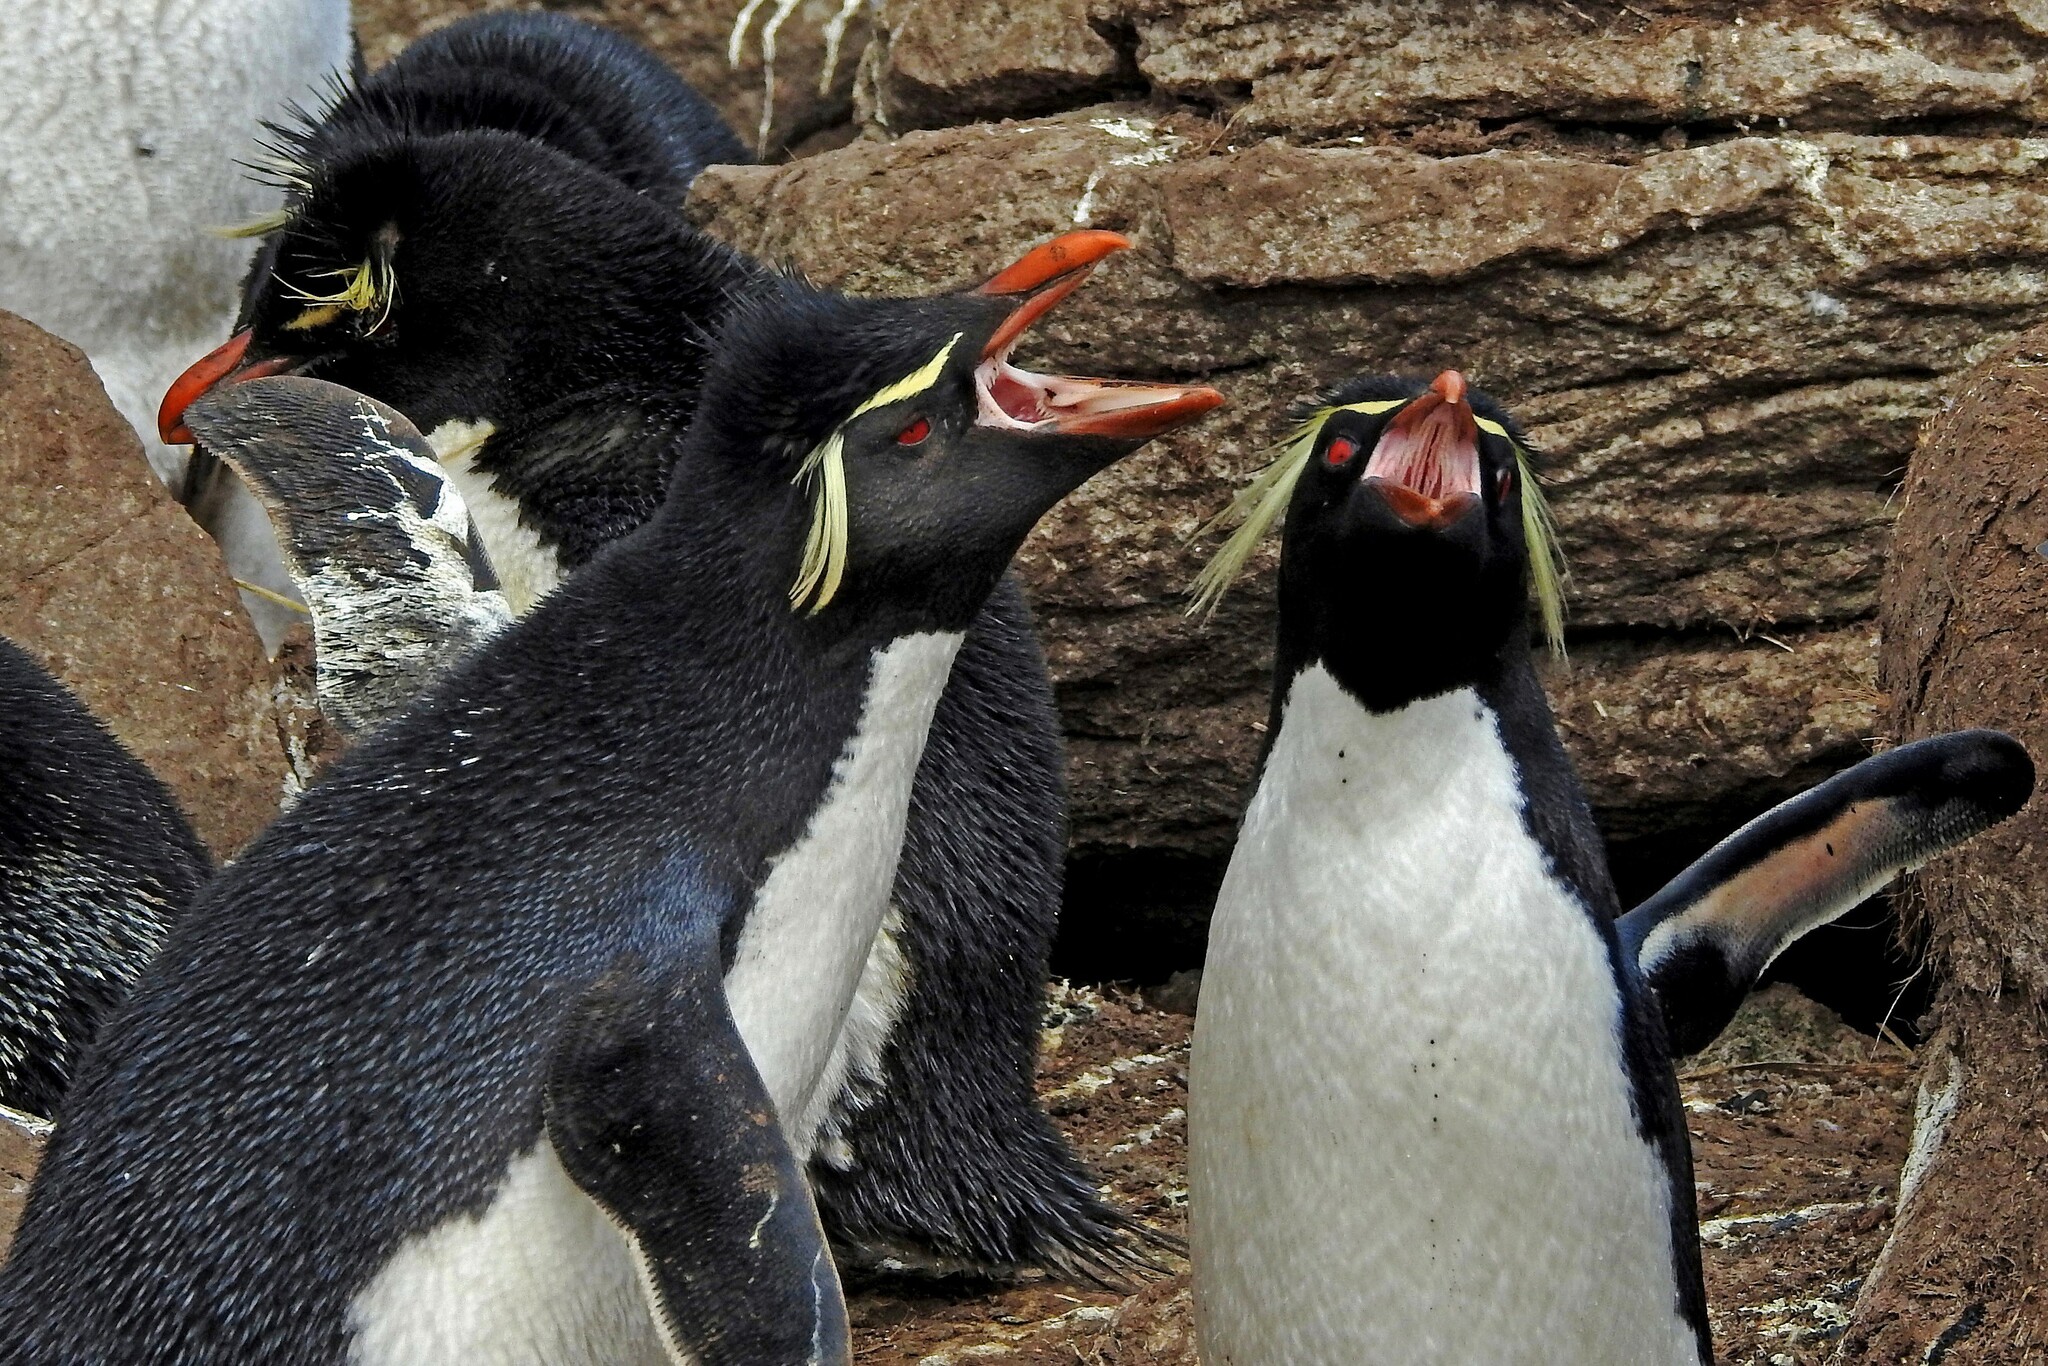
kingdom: Animalia
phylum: Chordata
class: Aves
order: Sphenisciformes
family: Spheniscidae
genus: Eudyptes
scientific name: Eudyptes chrysocome
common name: Southern rockhopper penguin
